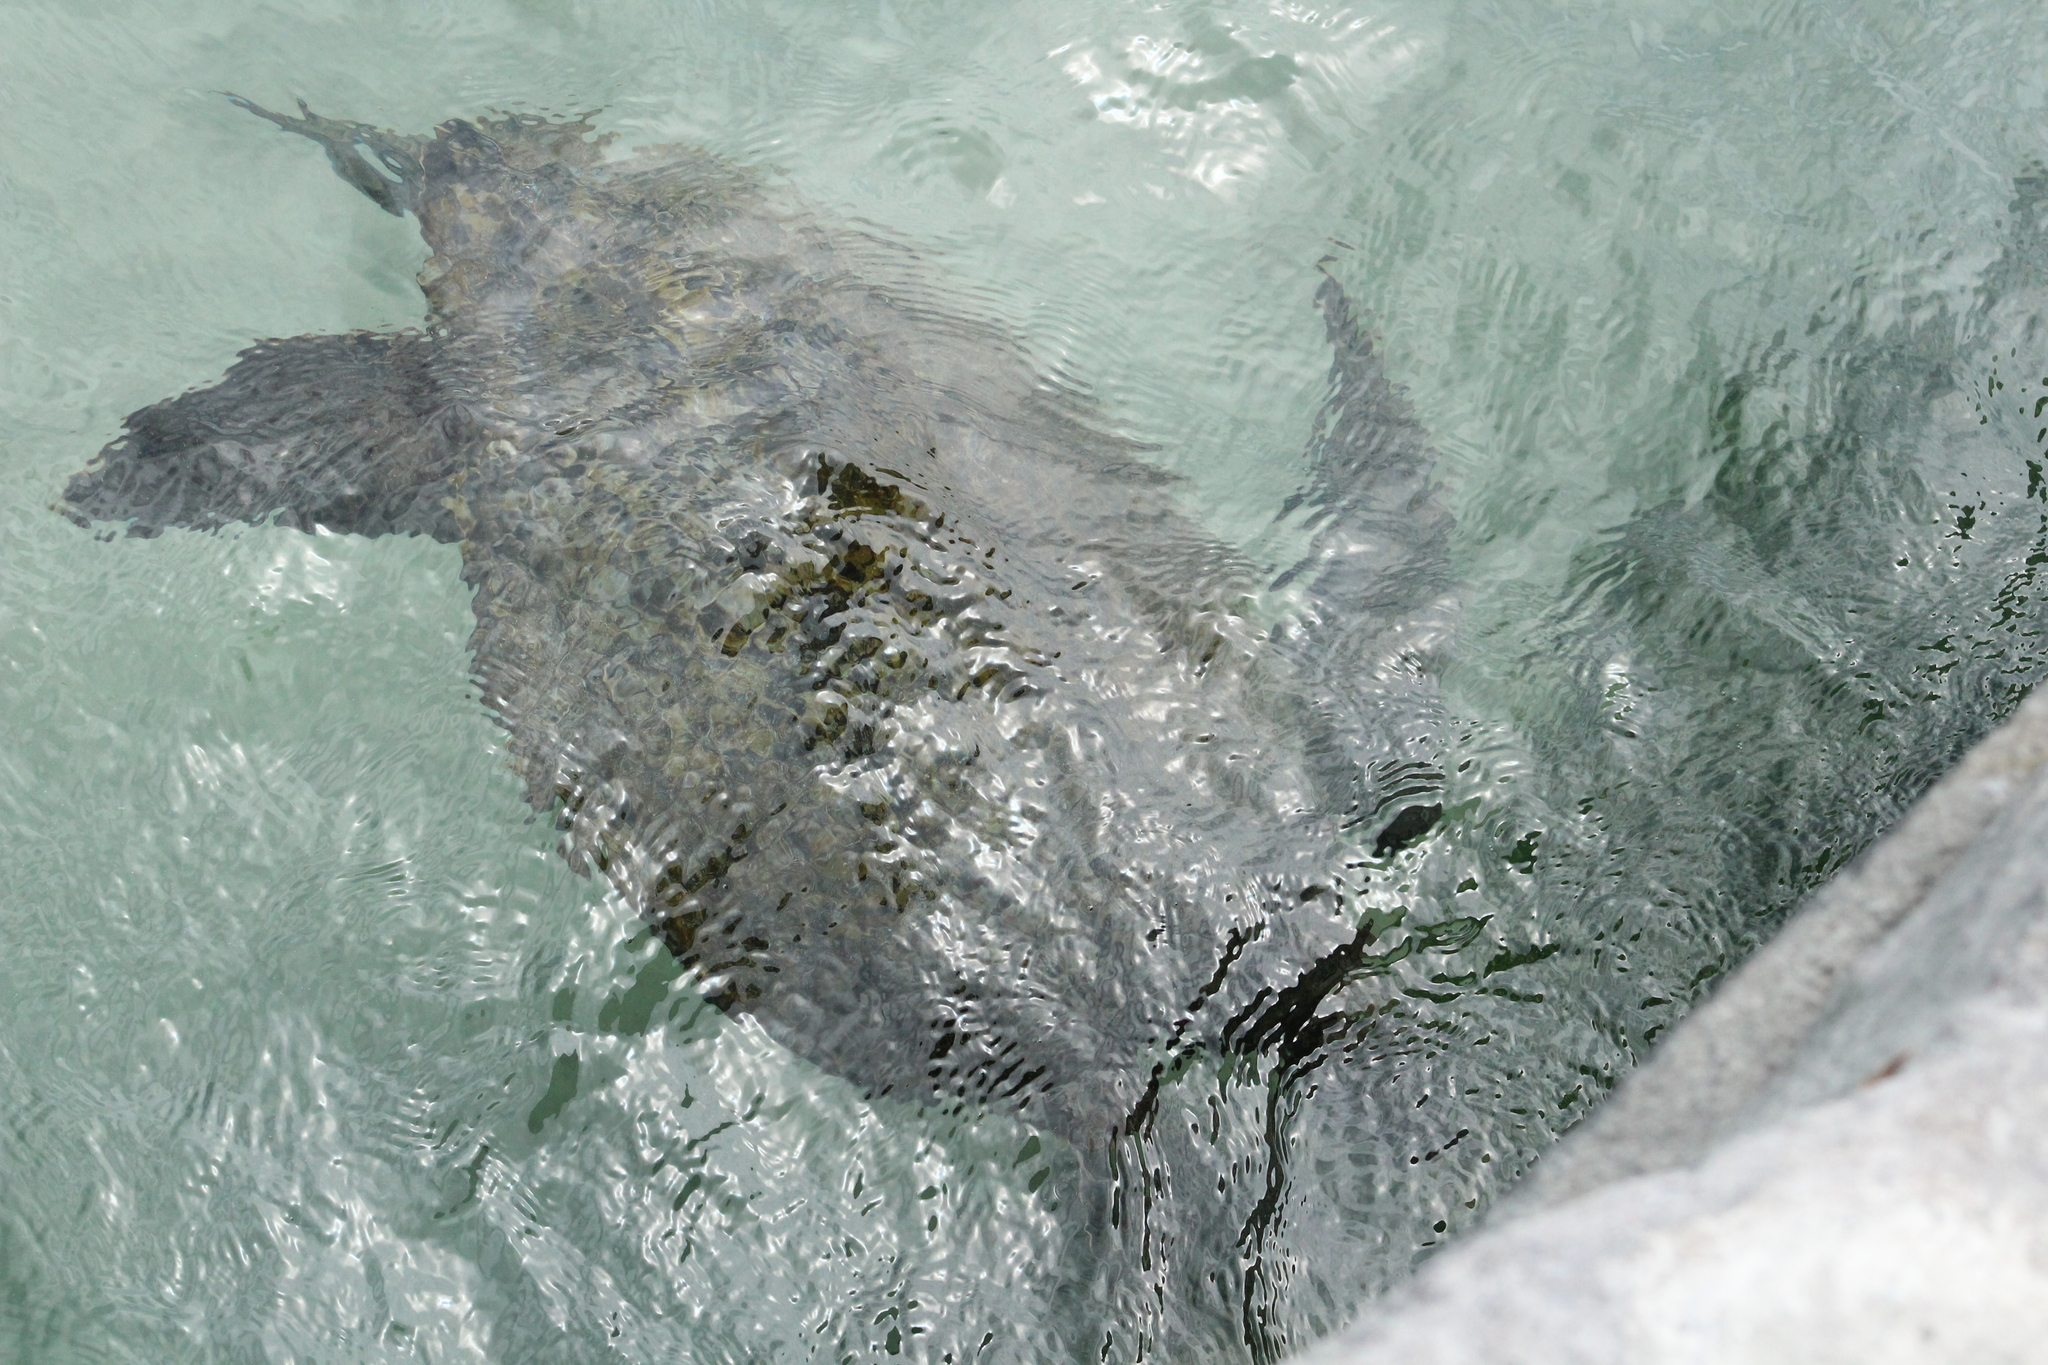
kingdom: Animalia
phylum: Chordata
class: Testudines
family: Cheloniidae
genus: Chelonia
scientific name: Chelonia mydas
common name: Green turtle
